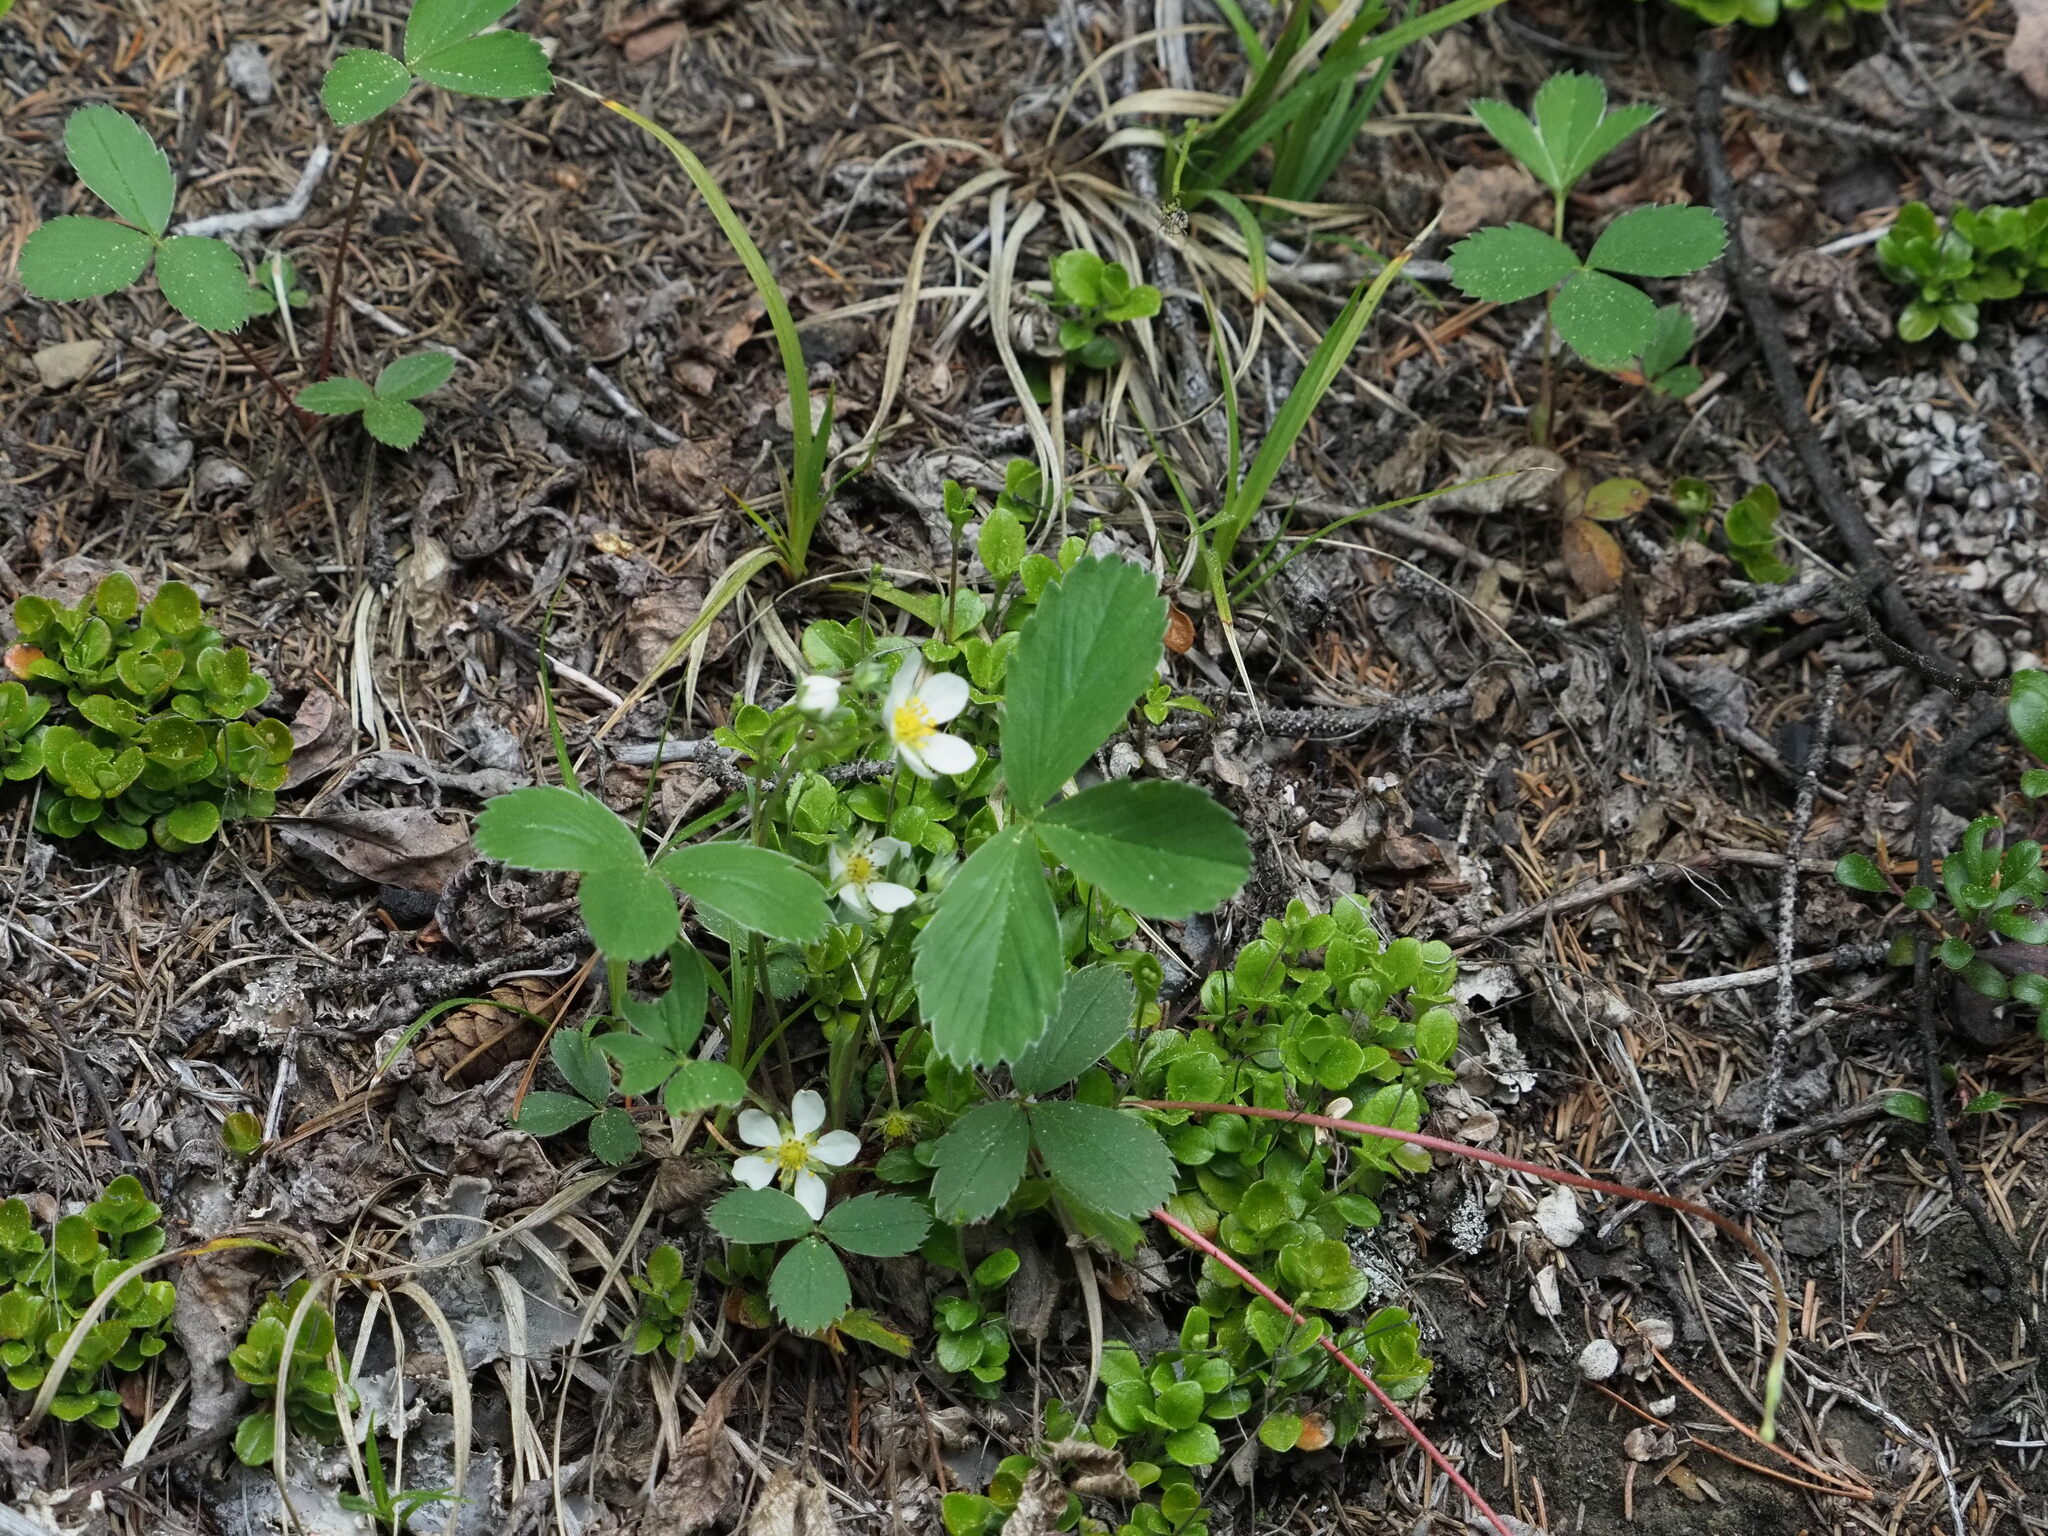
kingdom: Plantae
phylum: Tracheophyta
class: Magnoliopsida
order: Rosales
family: Rosaceae
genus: Fragaria
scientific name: Fragaria virginiana
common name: Thickleaved wild strawberry
